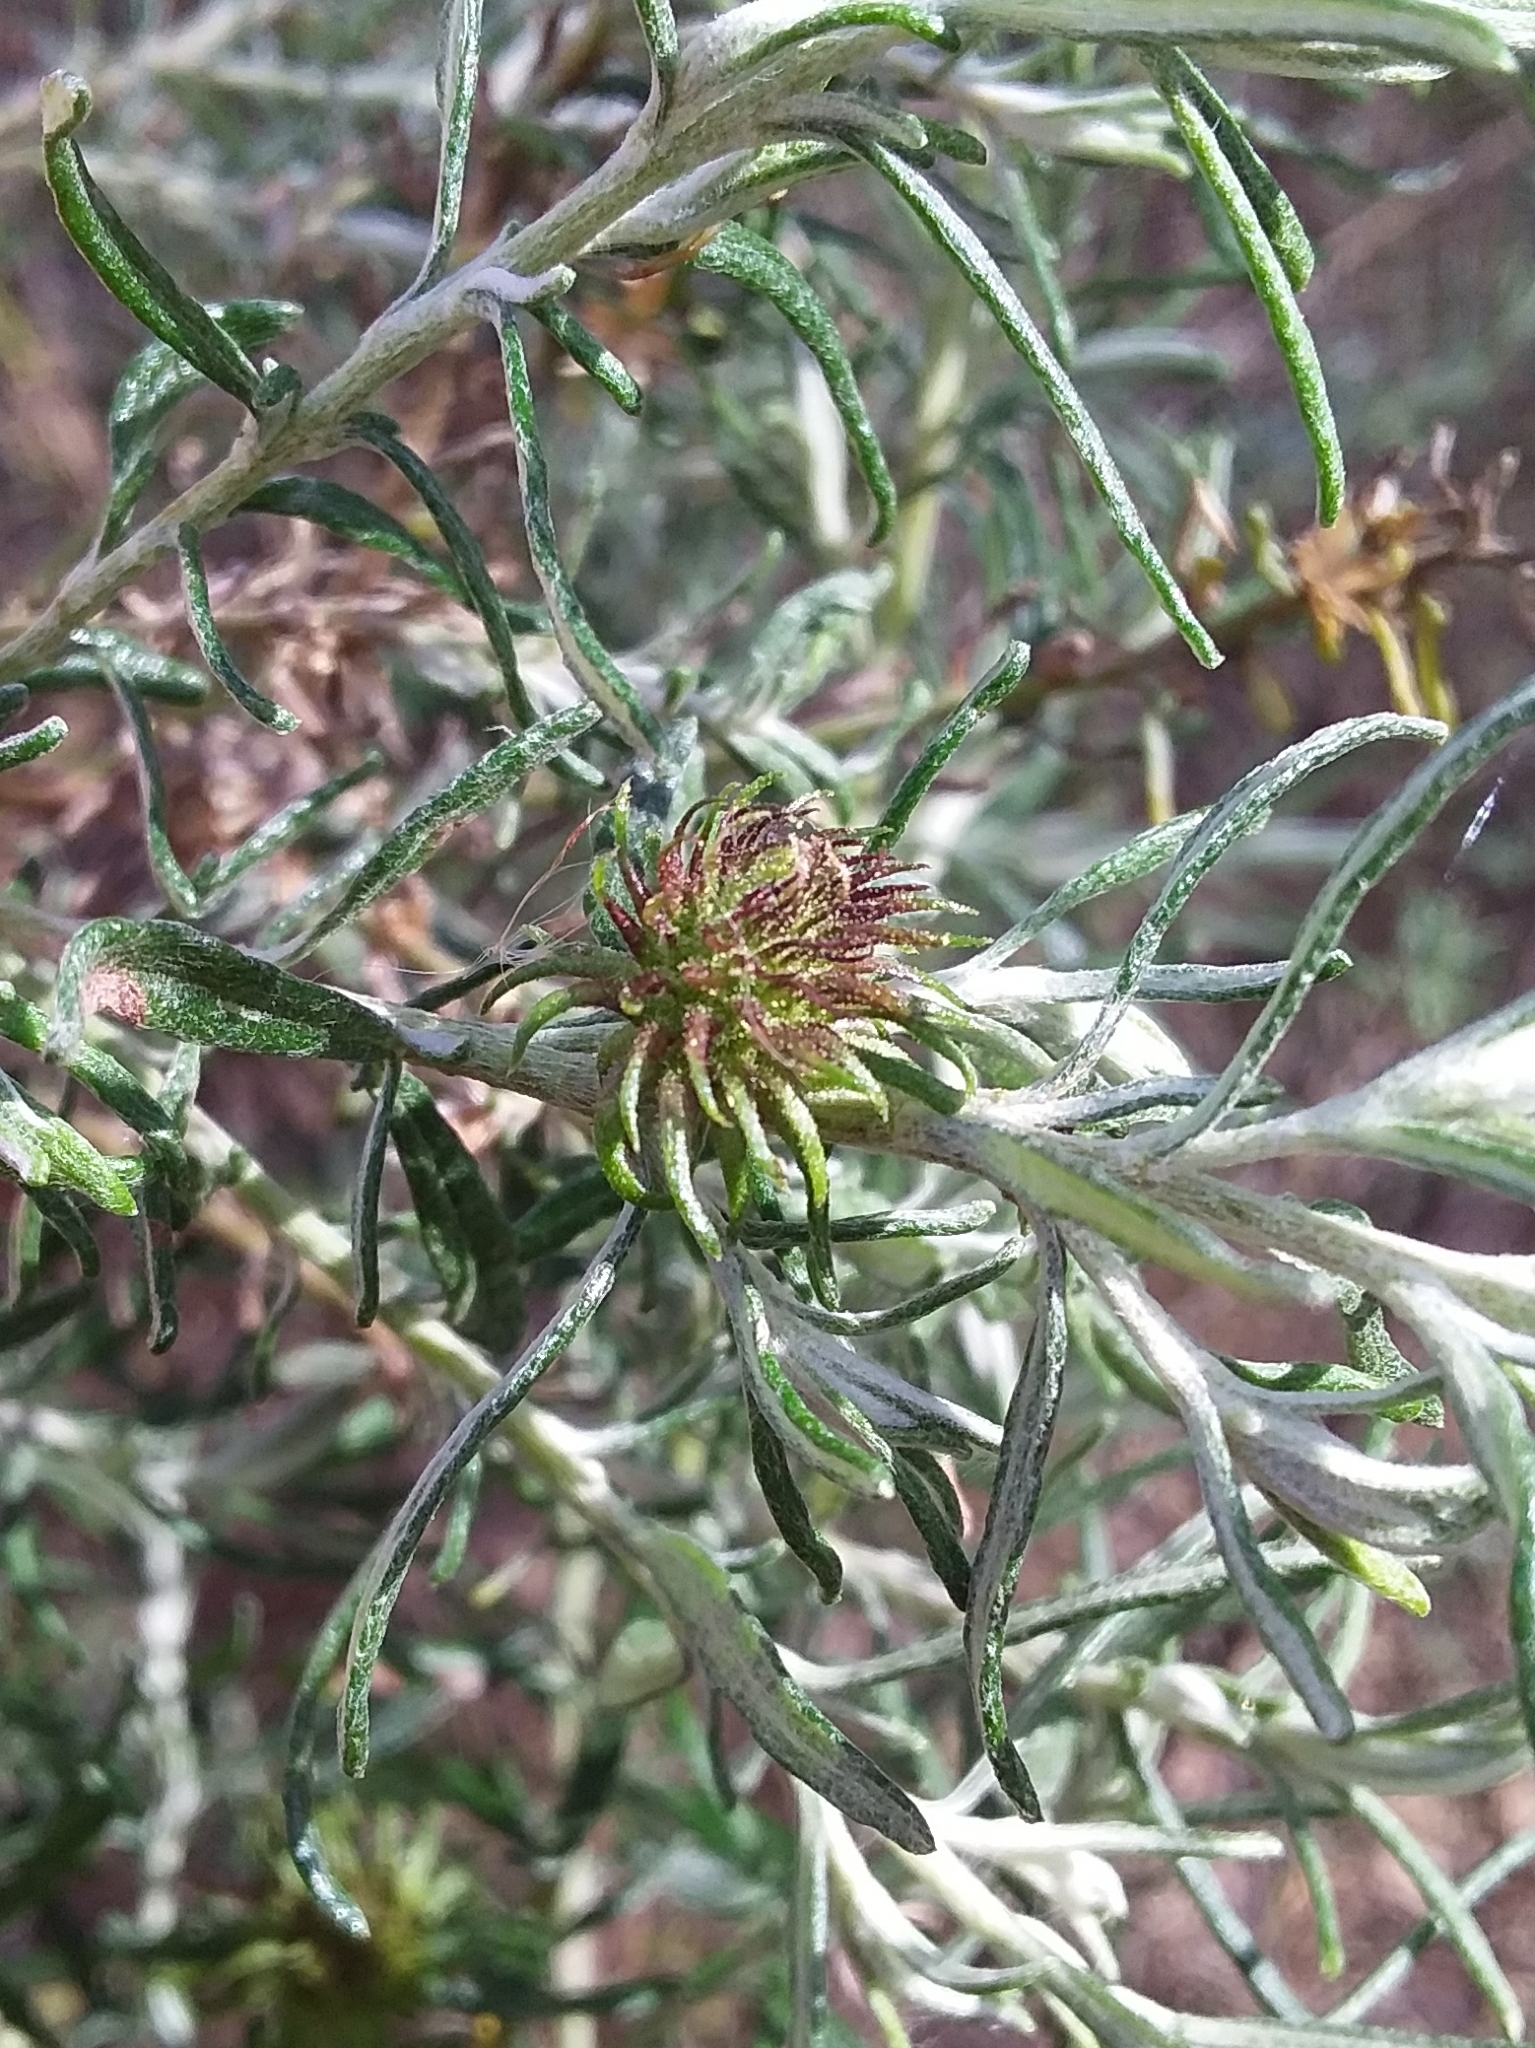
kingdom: Animalia
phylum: Arthropoda
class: Insecta
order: Diptera
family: Cecidomyiidae
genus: Trigonomyia
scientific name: Trigonomyia ananas
